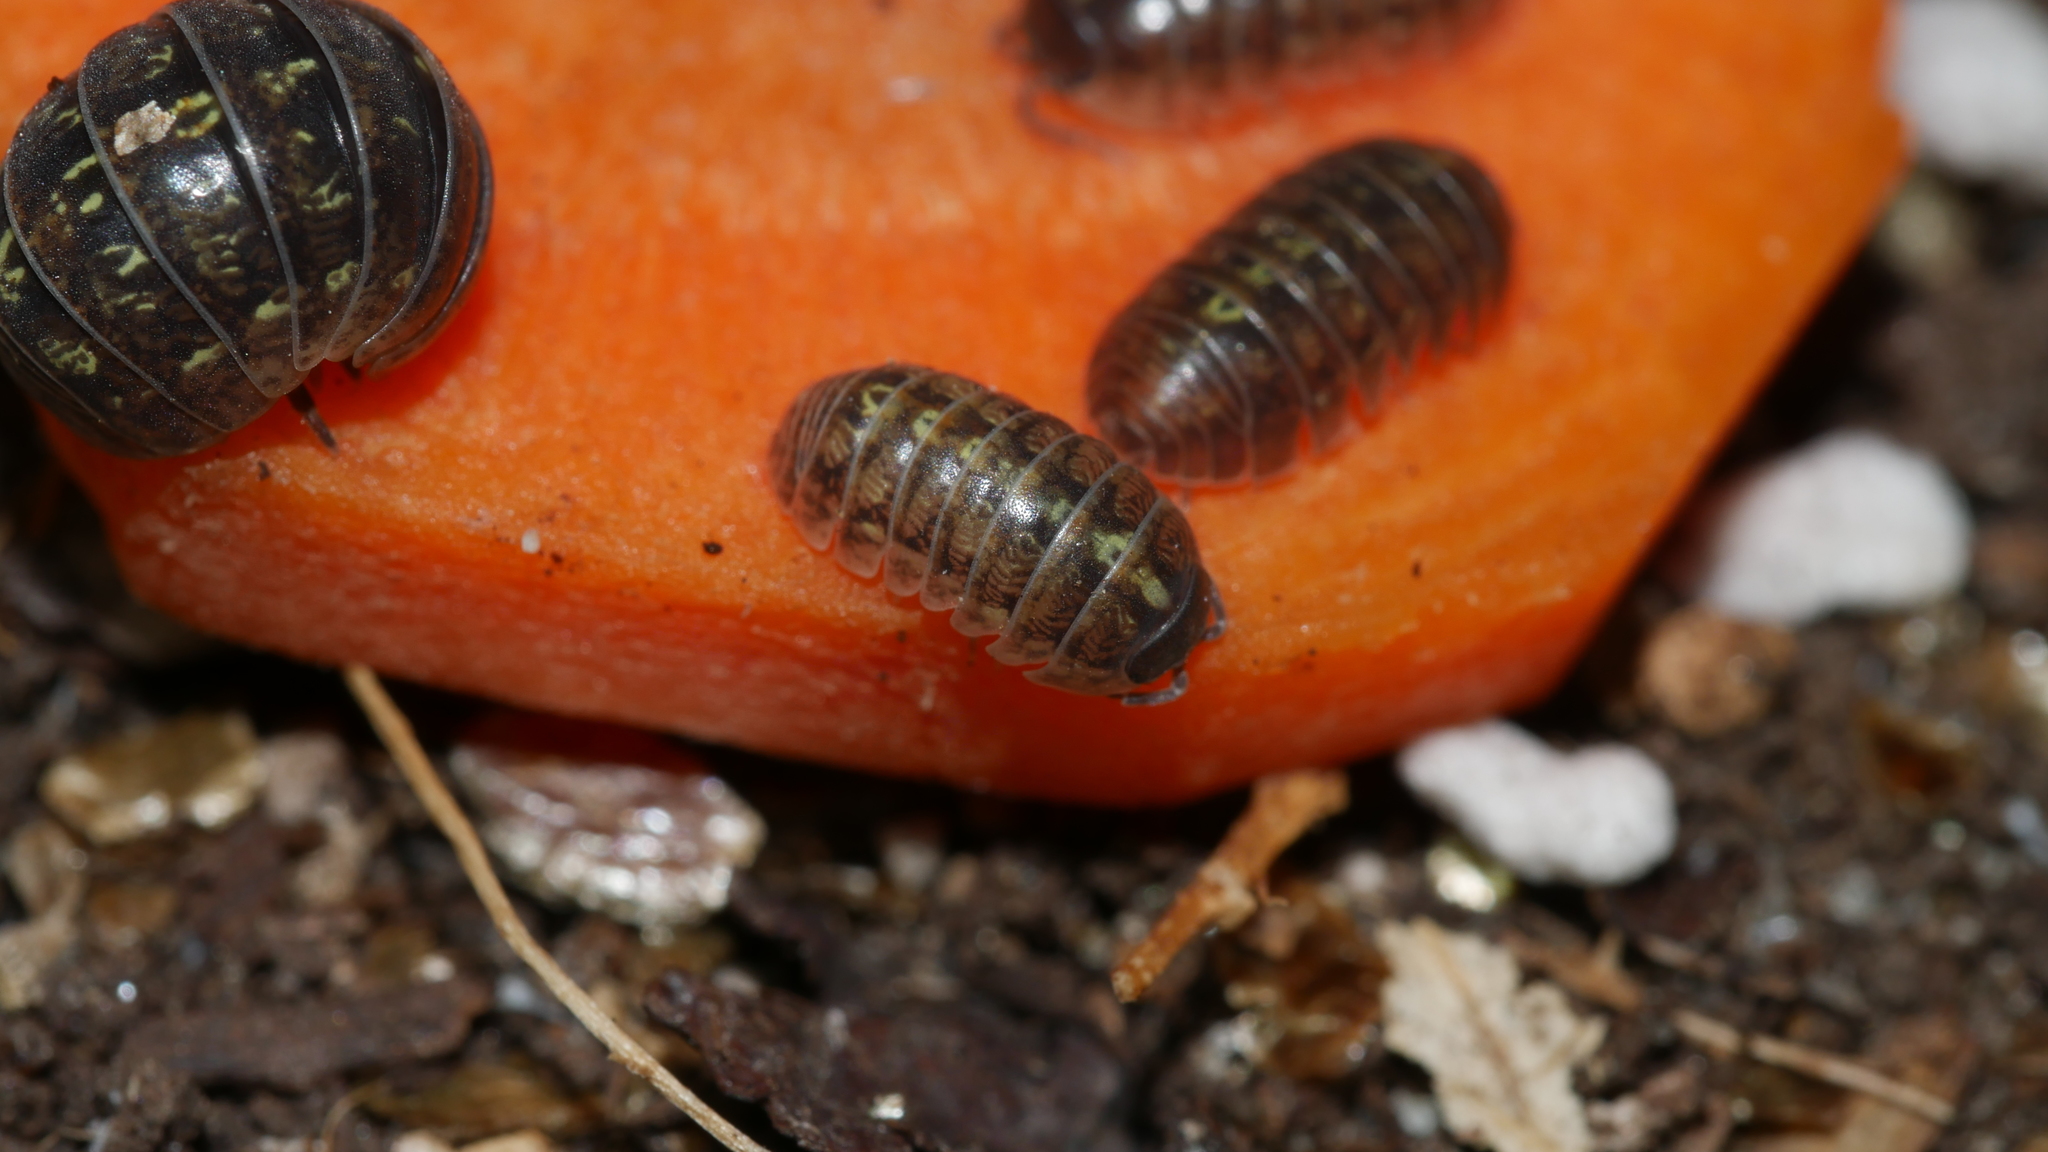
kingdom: Animalia
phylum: Arthropoda
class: Malacostraca
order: Isopoda
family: Armadillidiidae
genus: Armadillidium
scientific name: Armadillidium vulgare
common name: Common pill woodlouse
